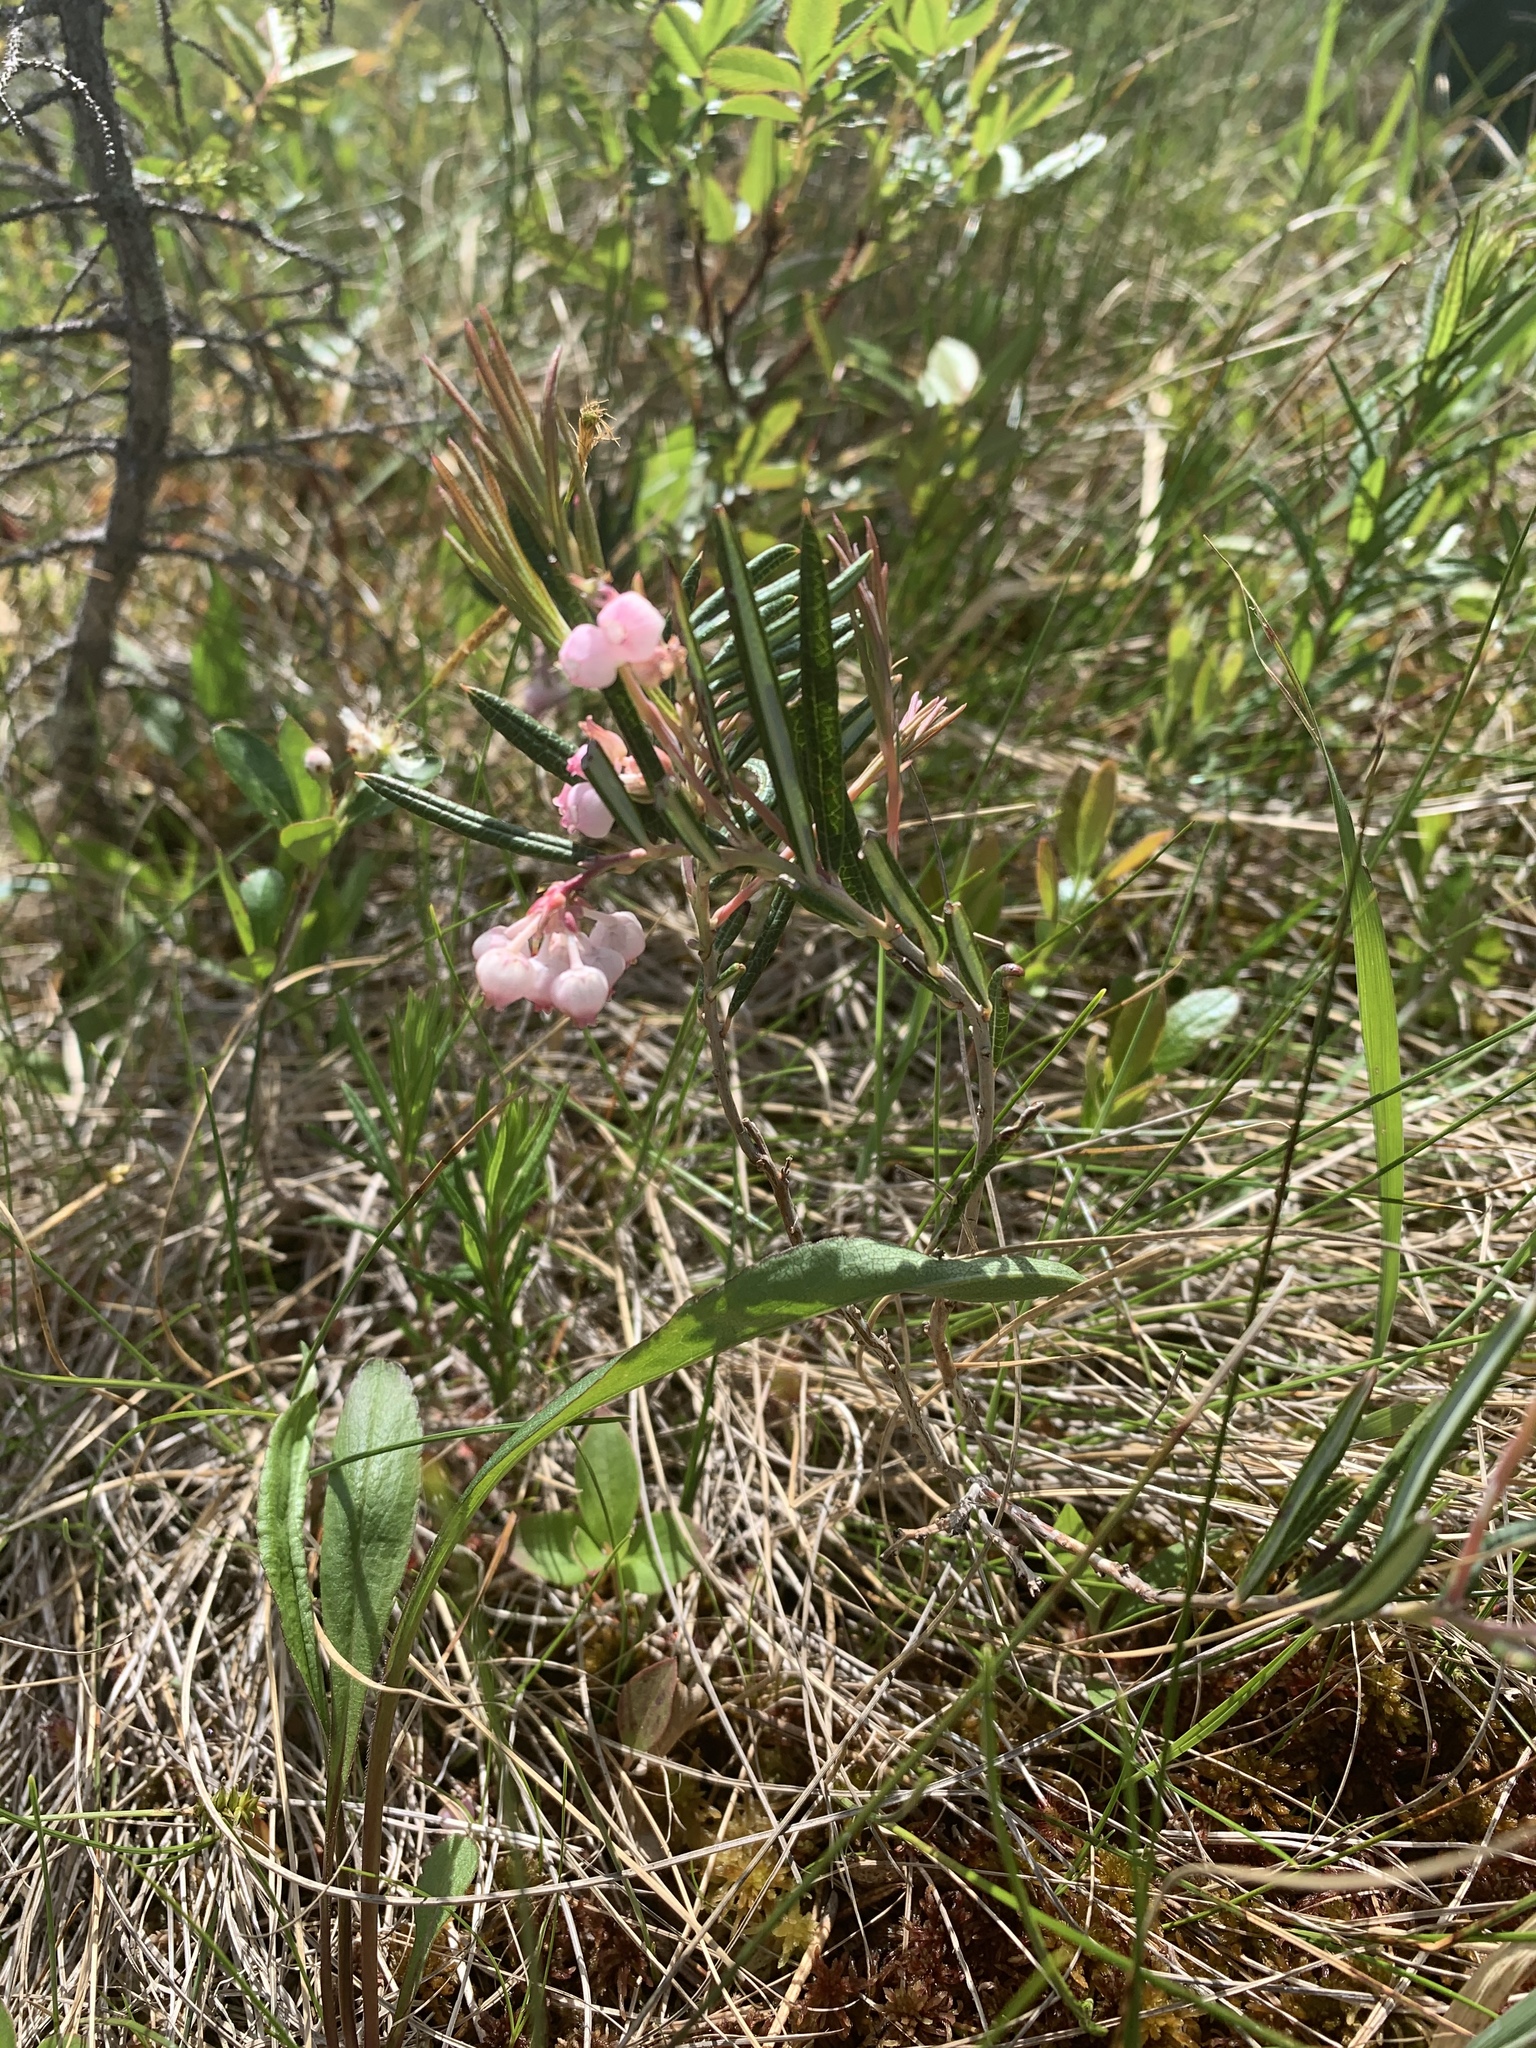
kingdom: Plantae
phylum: Tracheophyta
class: Magnoliopsida
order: Ericales
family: Ericaceae
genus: Andromeda
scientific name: Andromeda polifolia
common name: Bog-rosemary
